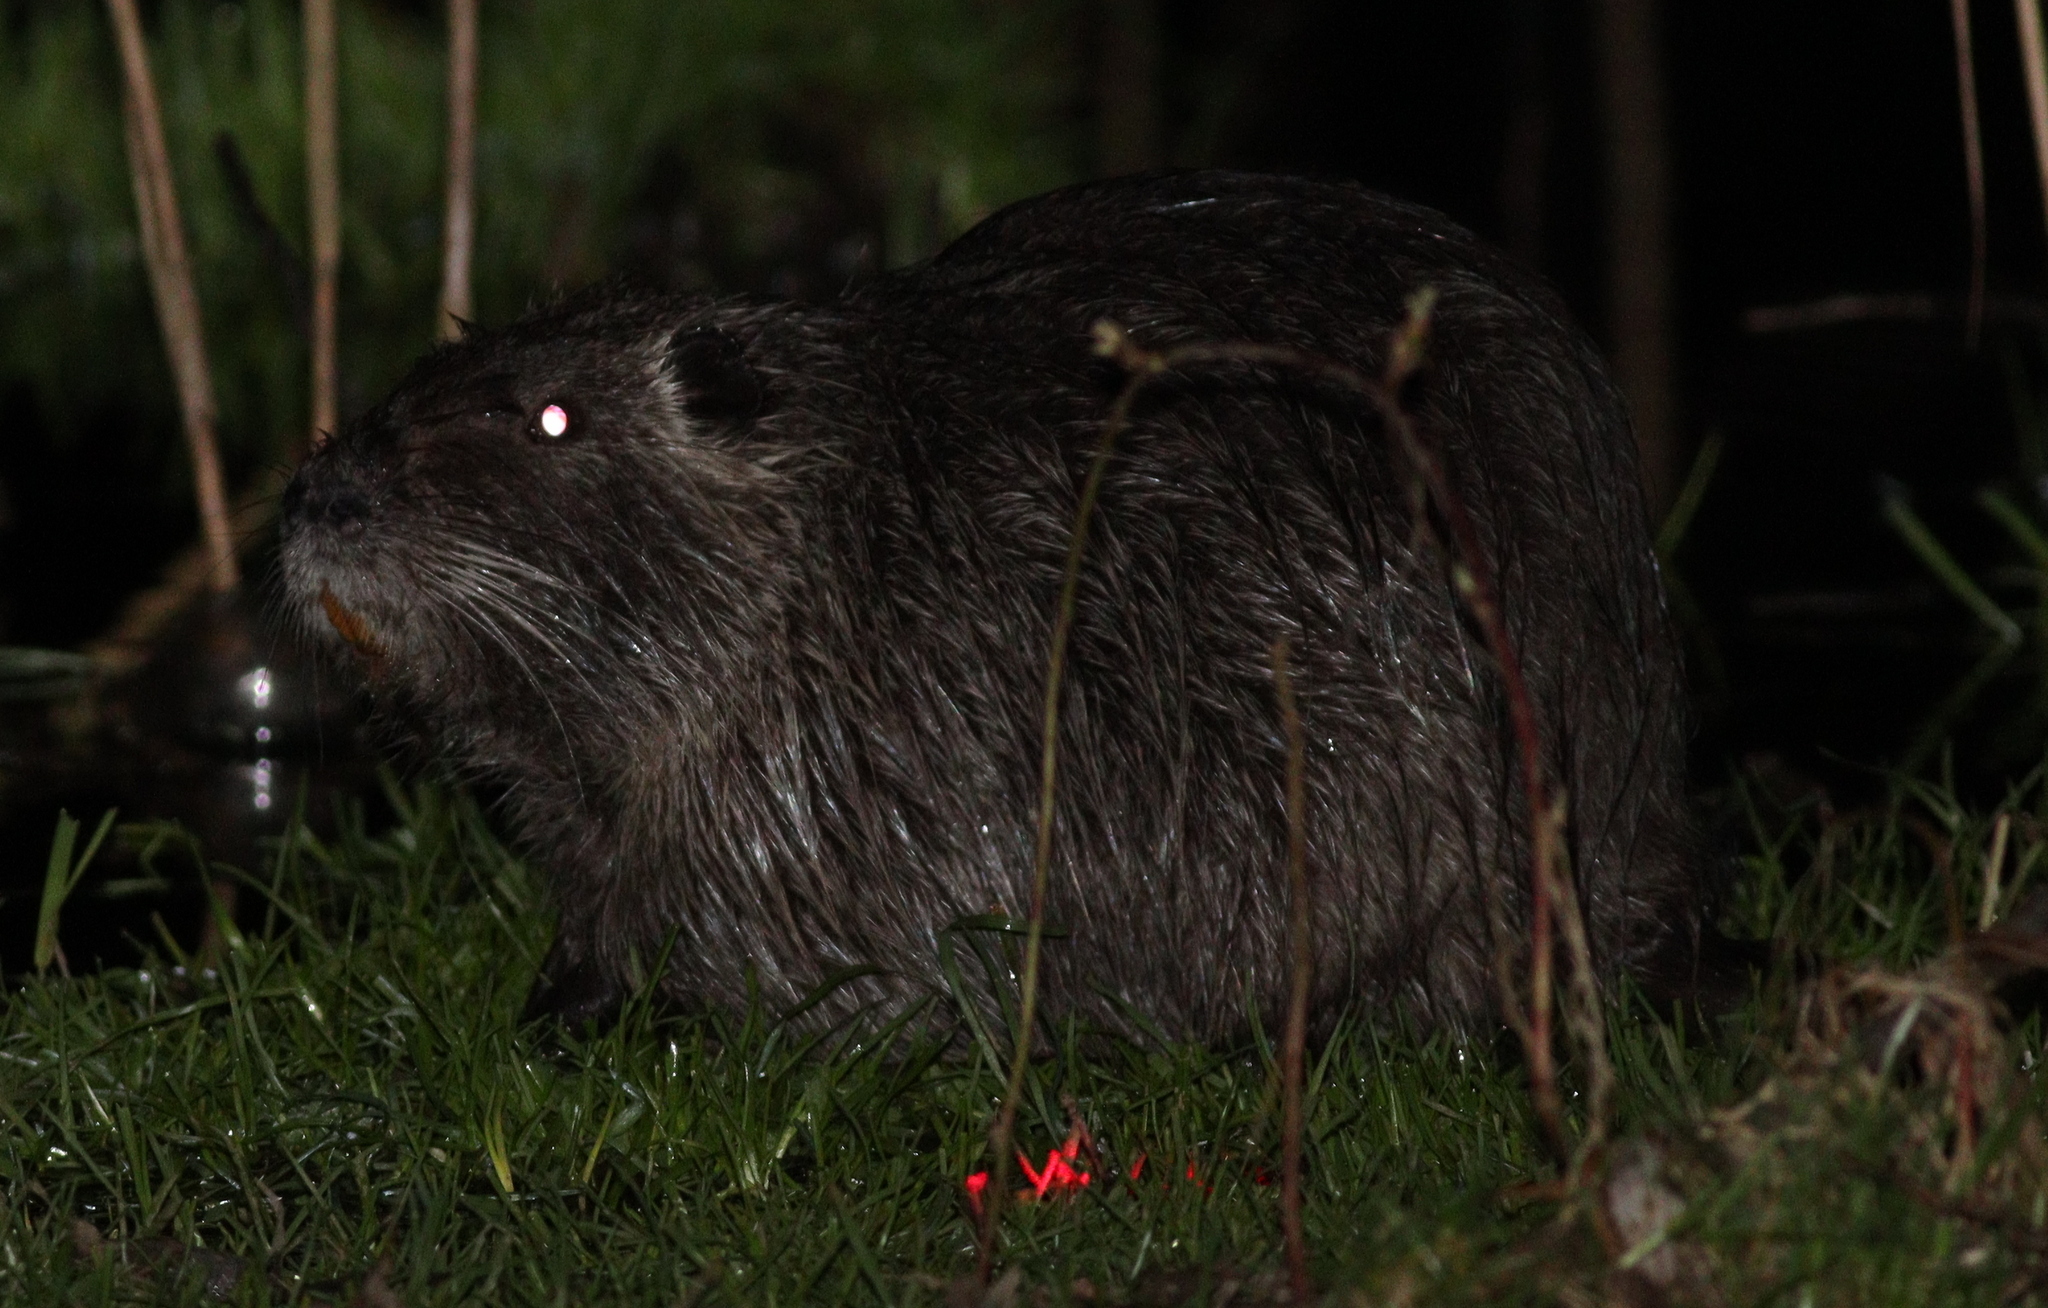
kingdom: Animalia
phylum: Chordata
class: Mammalia
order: Rodentia
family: Myocastoridae
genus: Myocastor
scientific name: Myocastor coypus
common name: Coypu
